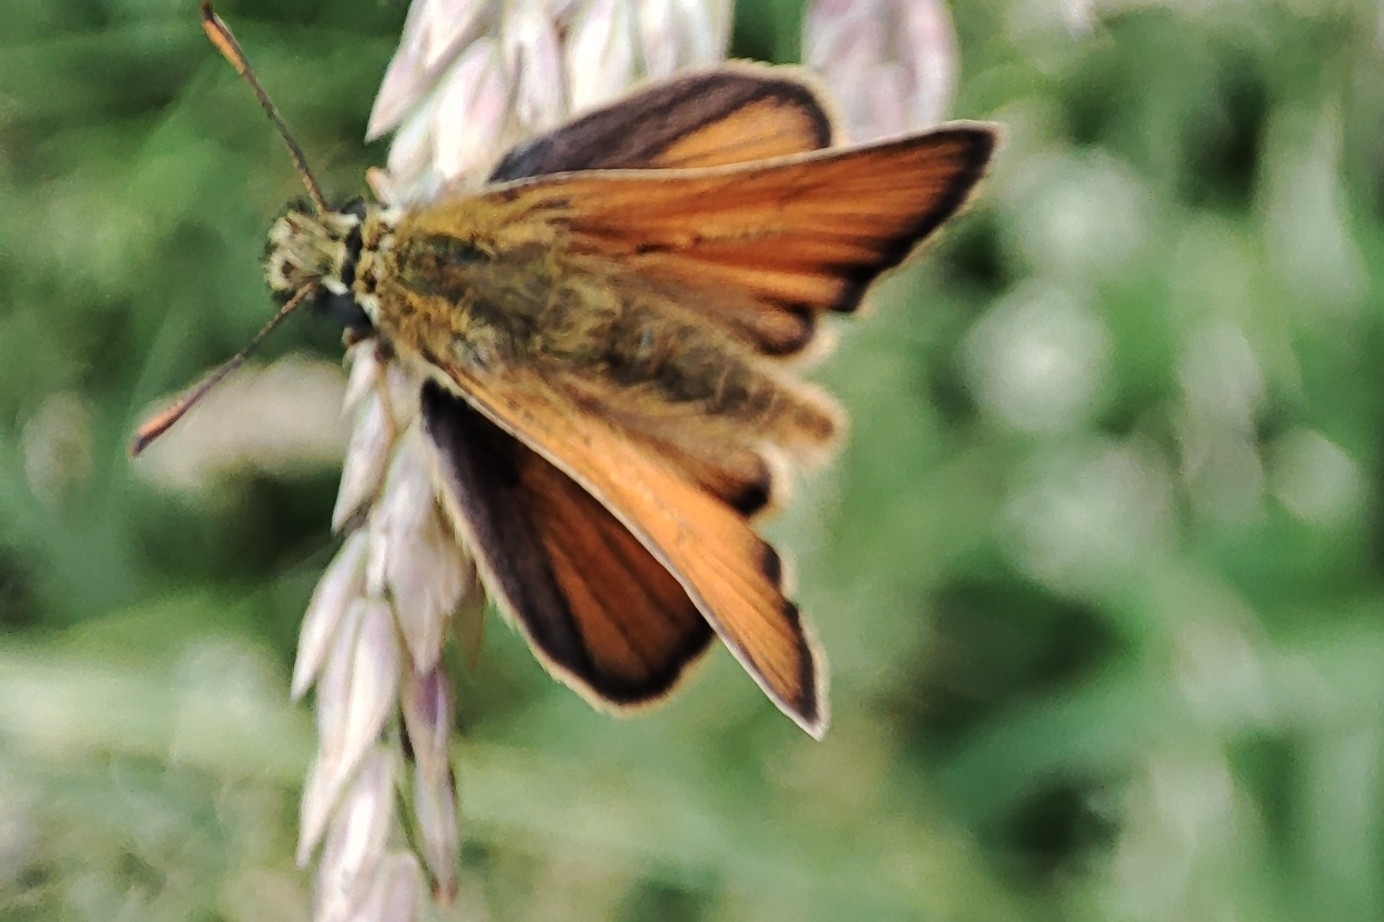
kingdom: Animalia
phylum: Arthropoda
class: Insecta
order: Lepidoptera
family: Hesperiidae
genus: Thymelicus
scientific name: Thymelicus sylvestris
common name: Small skipper
